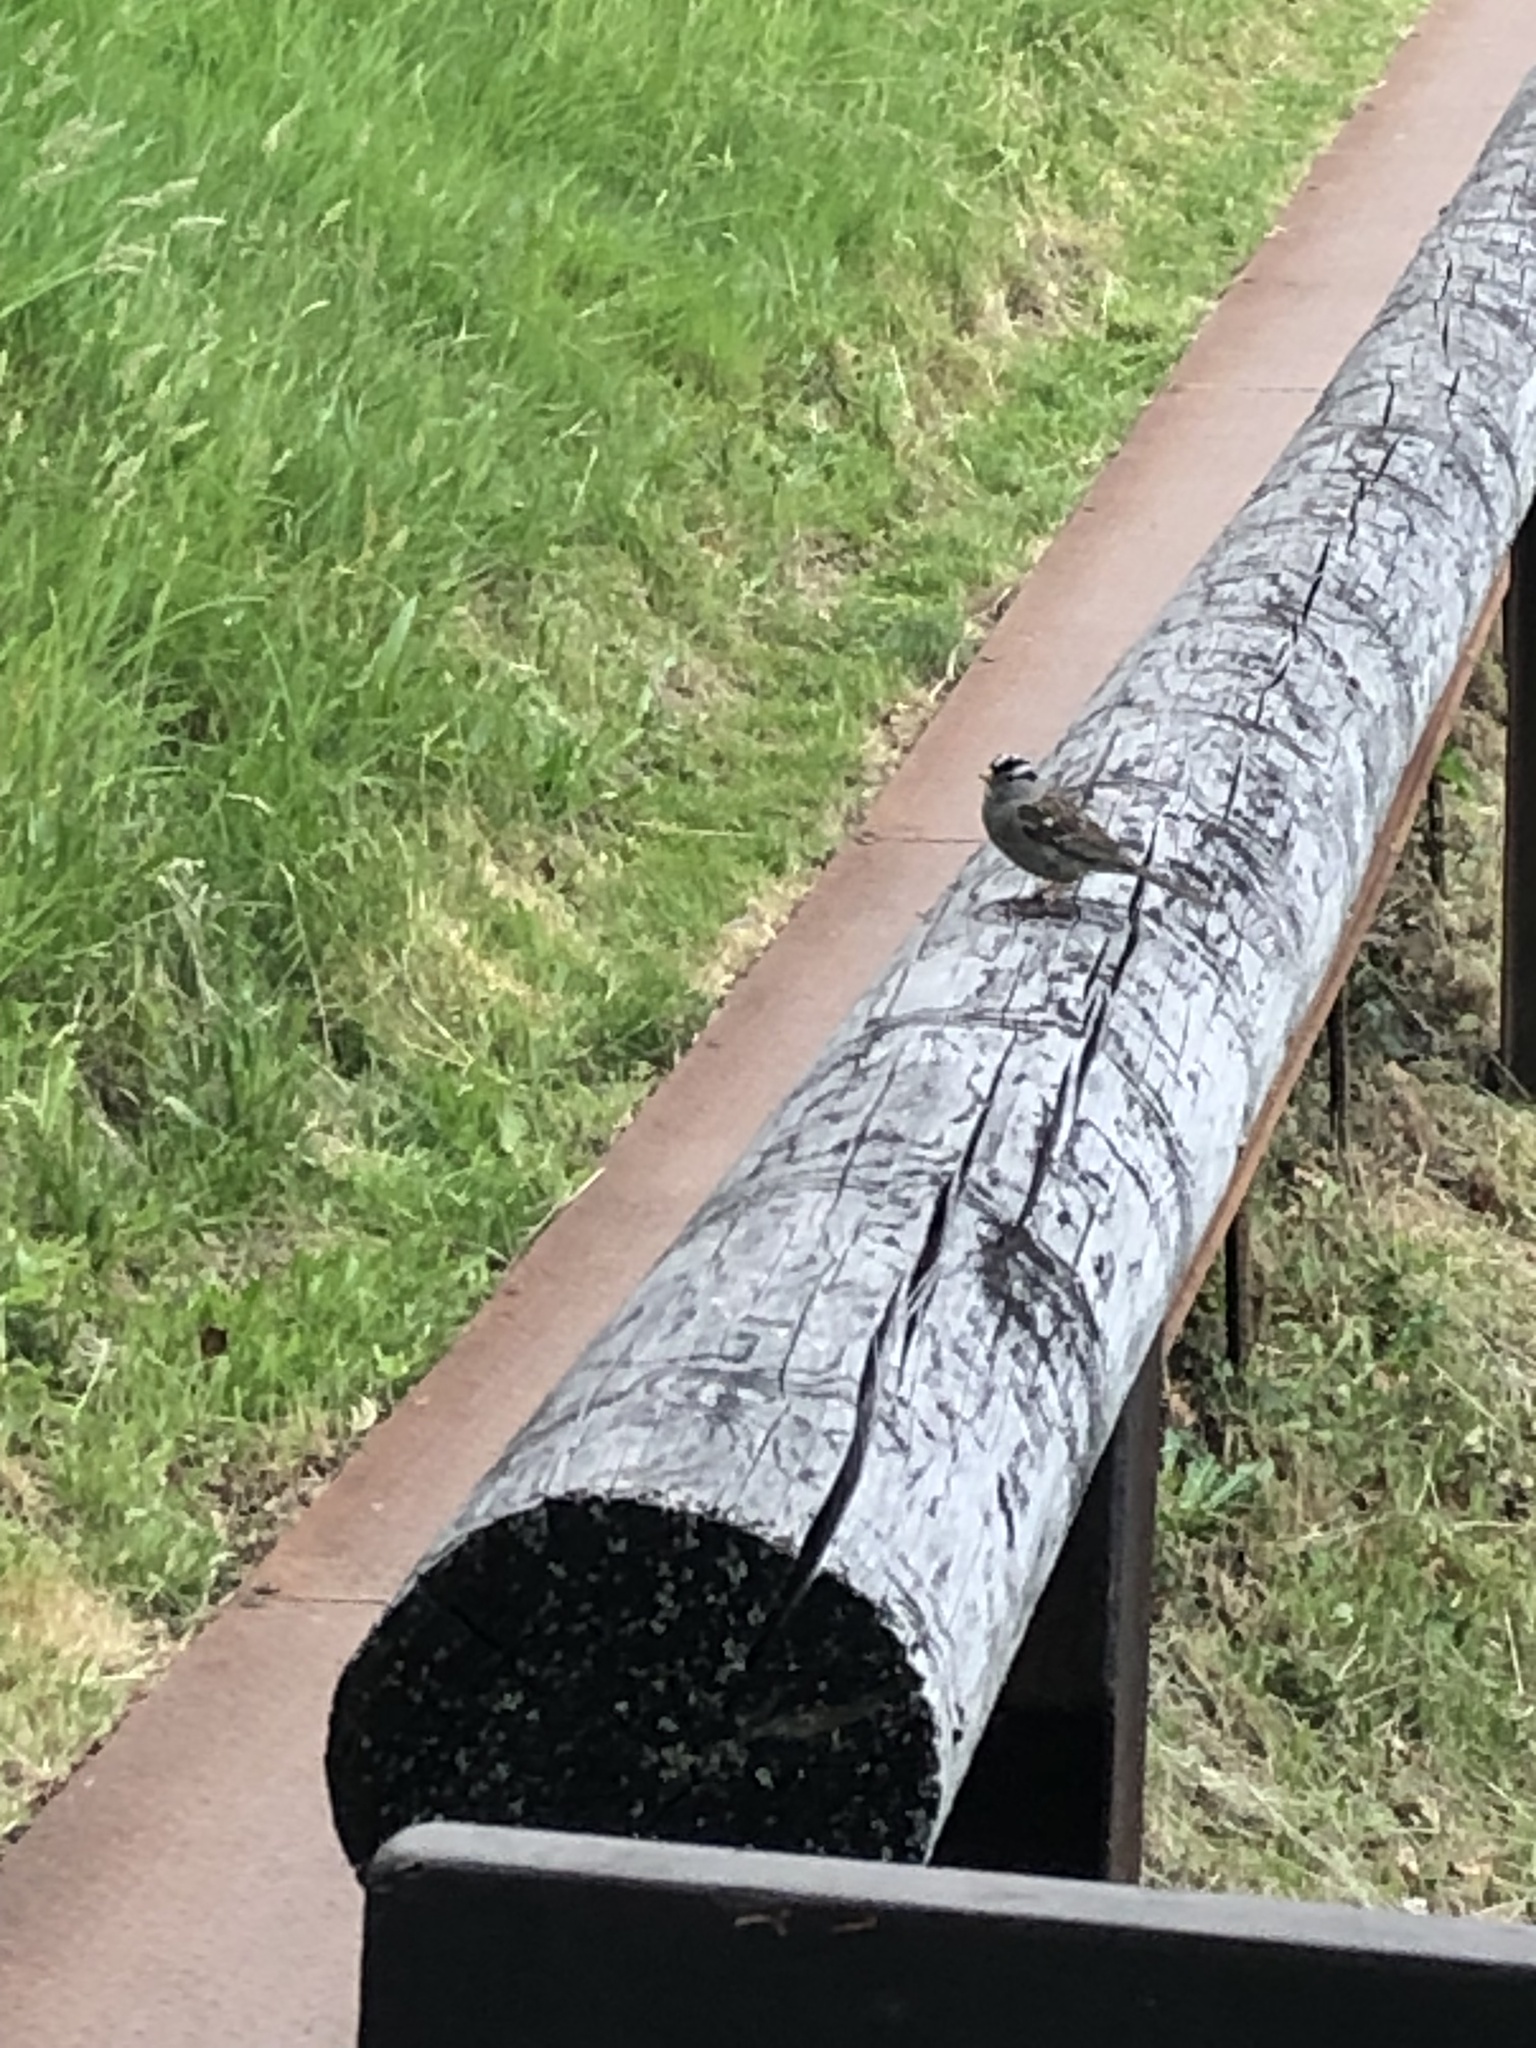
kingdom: Animalia
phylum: Chordata
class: Aves
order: Passeriformes
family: Passerellidae
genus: Zonotrichia
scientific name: Zonotrichia leucophrys
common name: White-crowned sparrow
